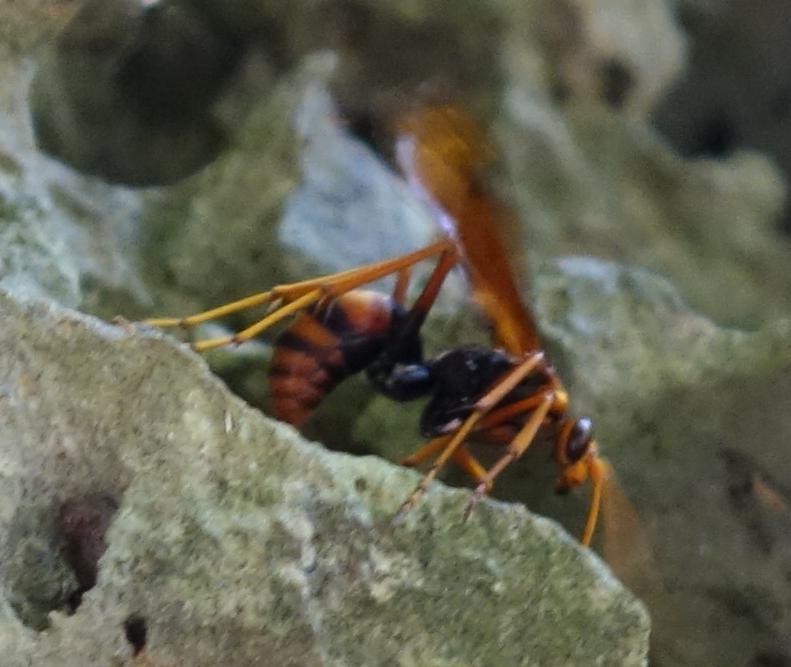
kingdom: Animalia
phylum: Arthropoda
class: Insecta
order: Hymenoptera
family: Pompilidae
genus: Leptodialepis
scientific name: Leptodialepis nicevillei
